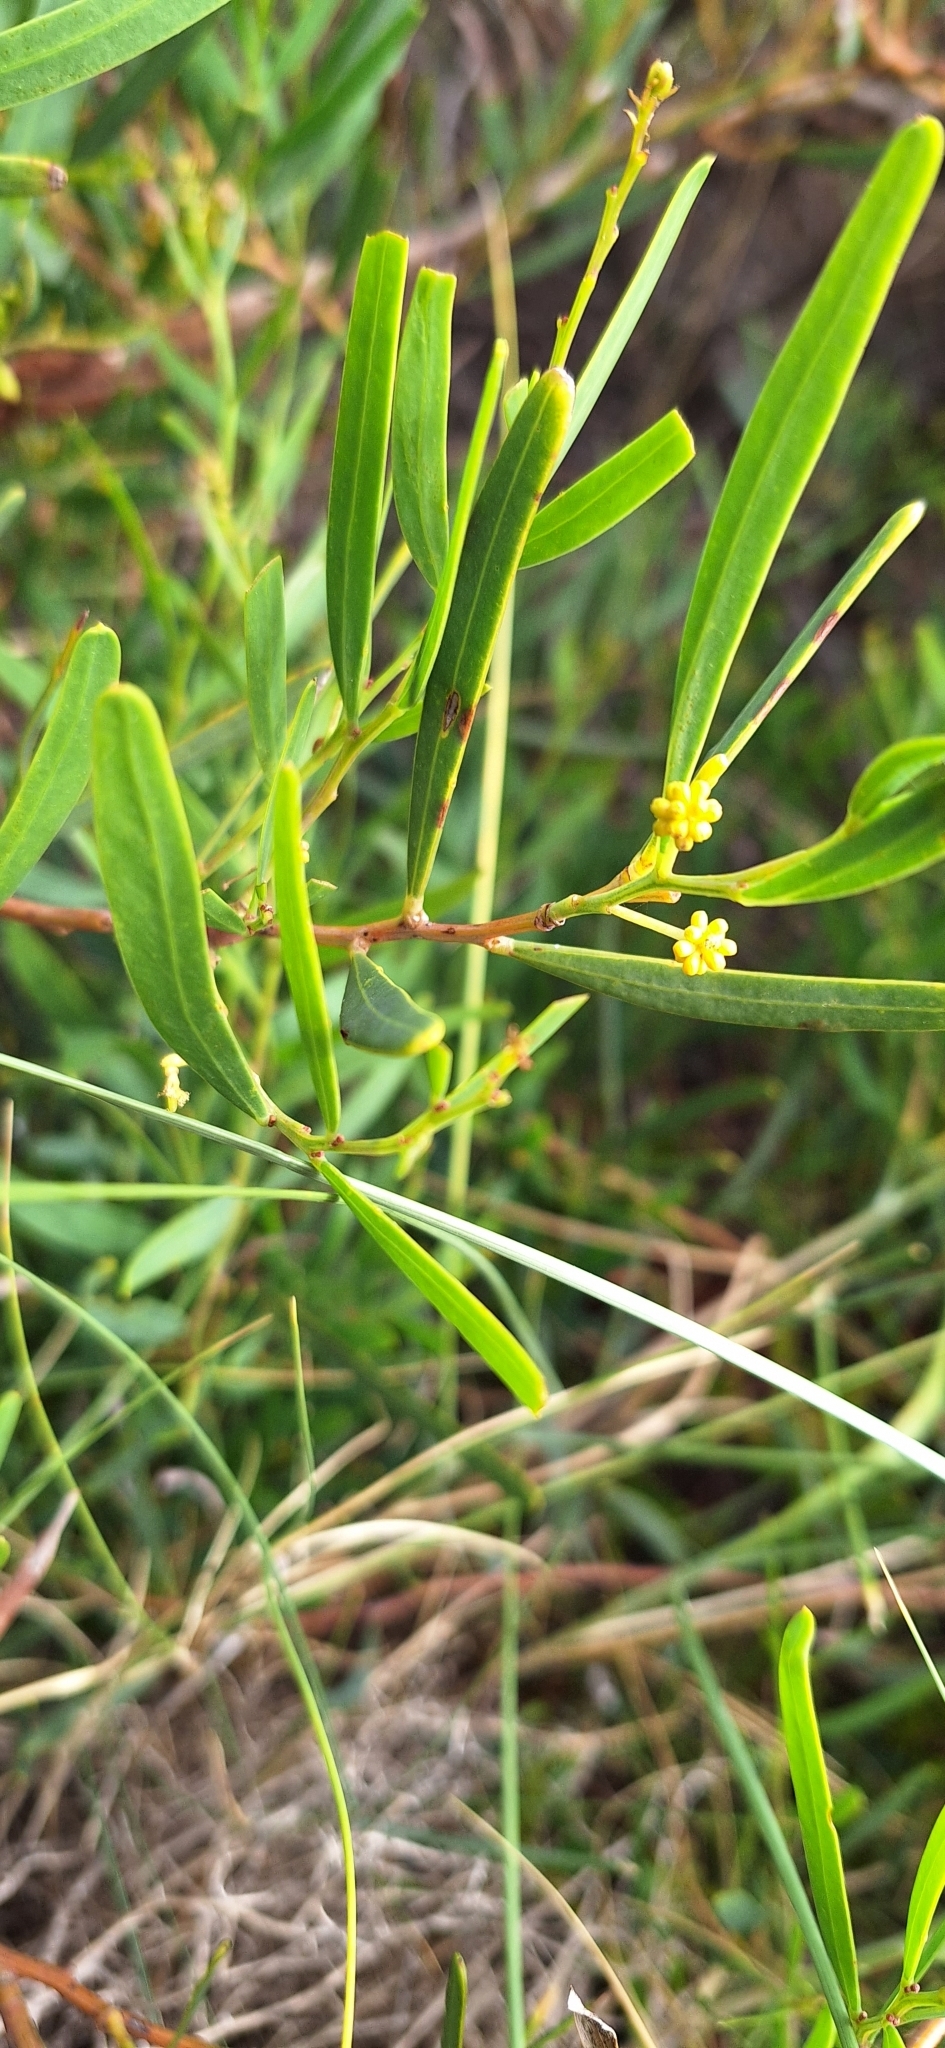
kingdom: Plantae
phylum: Tracheophyta
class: Magnoliopsida
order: Fabales
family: Fabaceae
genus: Acacia
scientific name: Acacia ligulata
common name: Dune wattle
